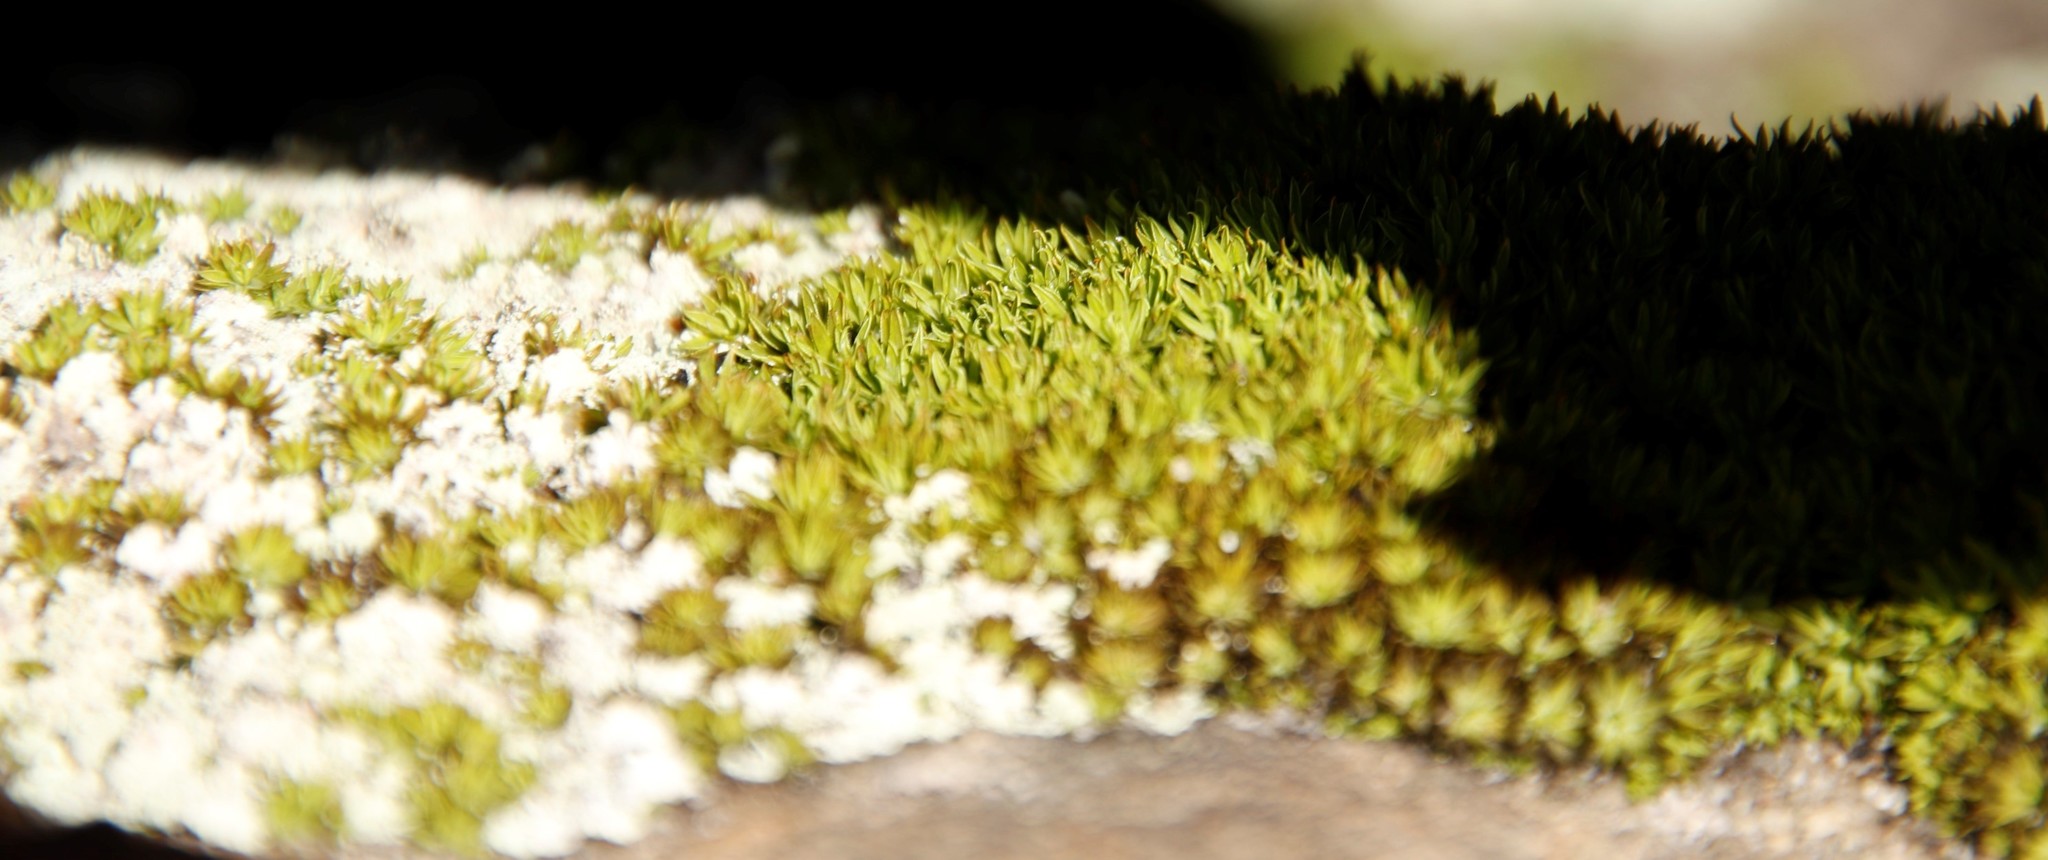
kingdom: Plantae
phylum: Bryophyta
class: Bryopsida
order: Dicranales
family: Hypodontiaceae
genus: Hypodontium
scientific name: Hypodontium pomiforme
